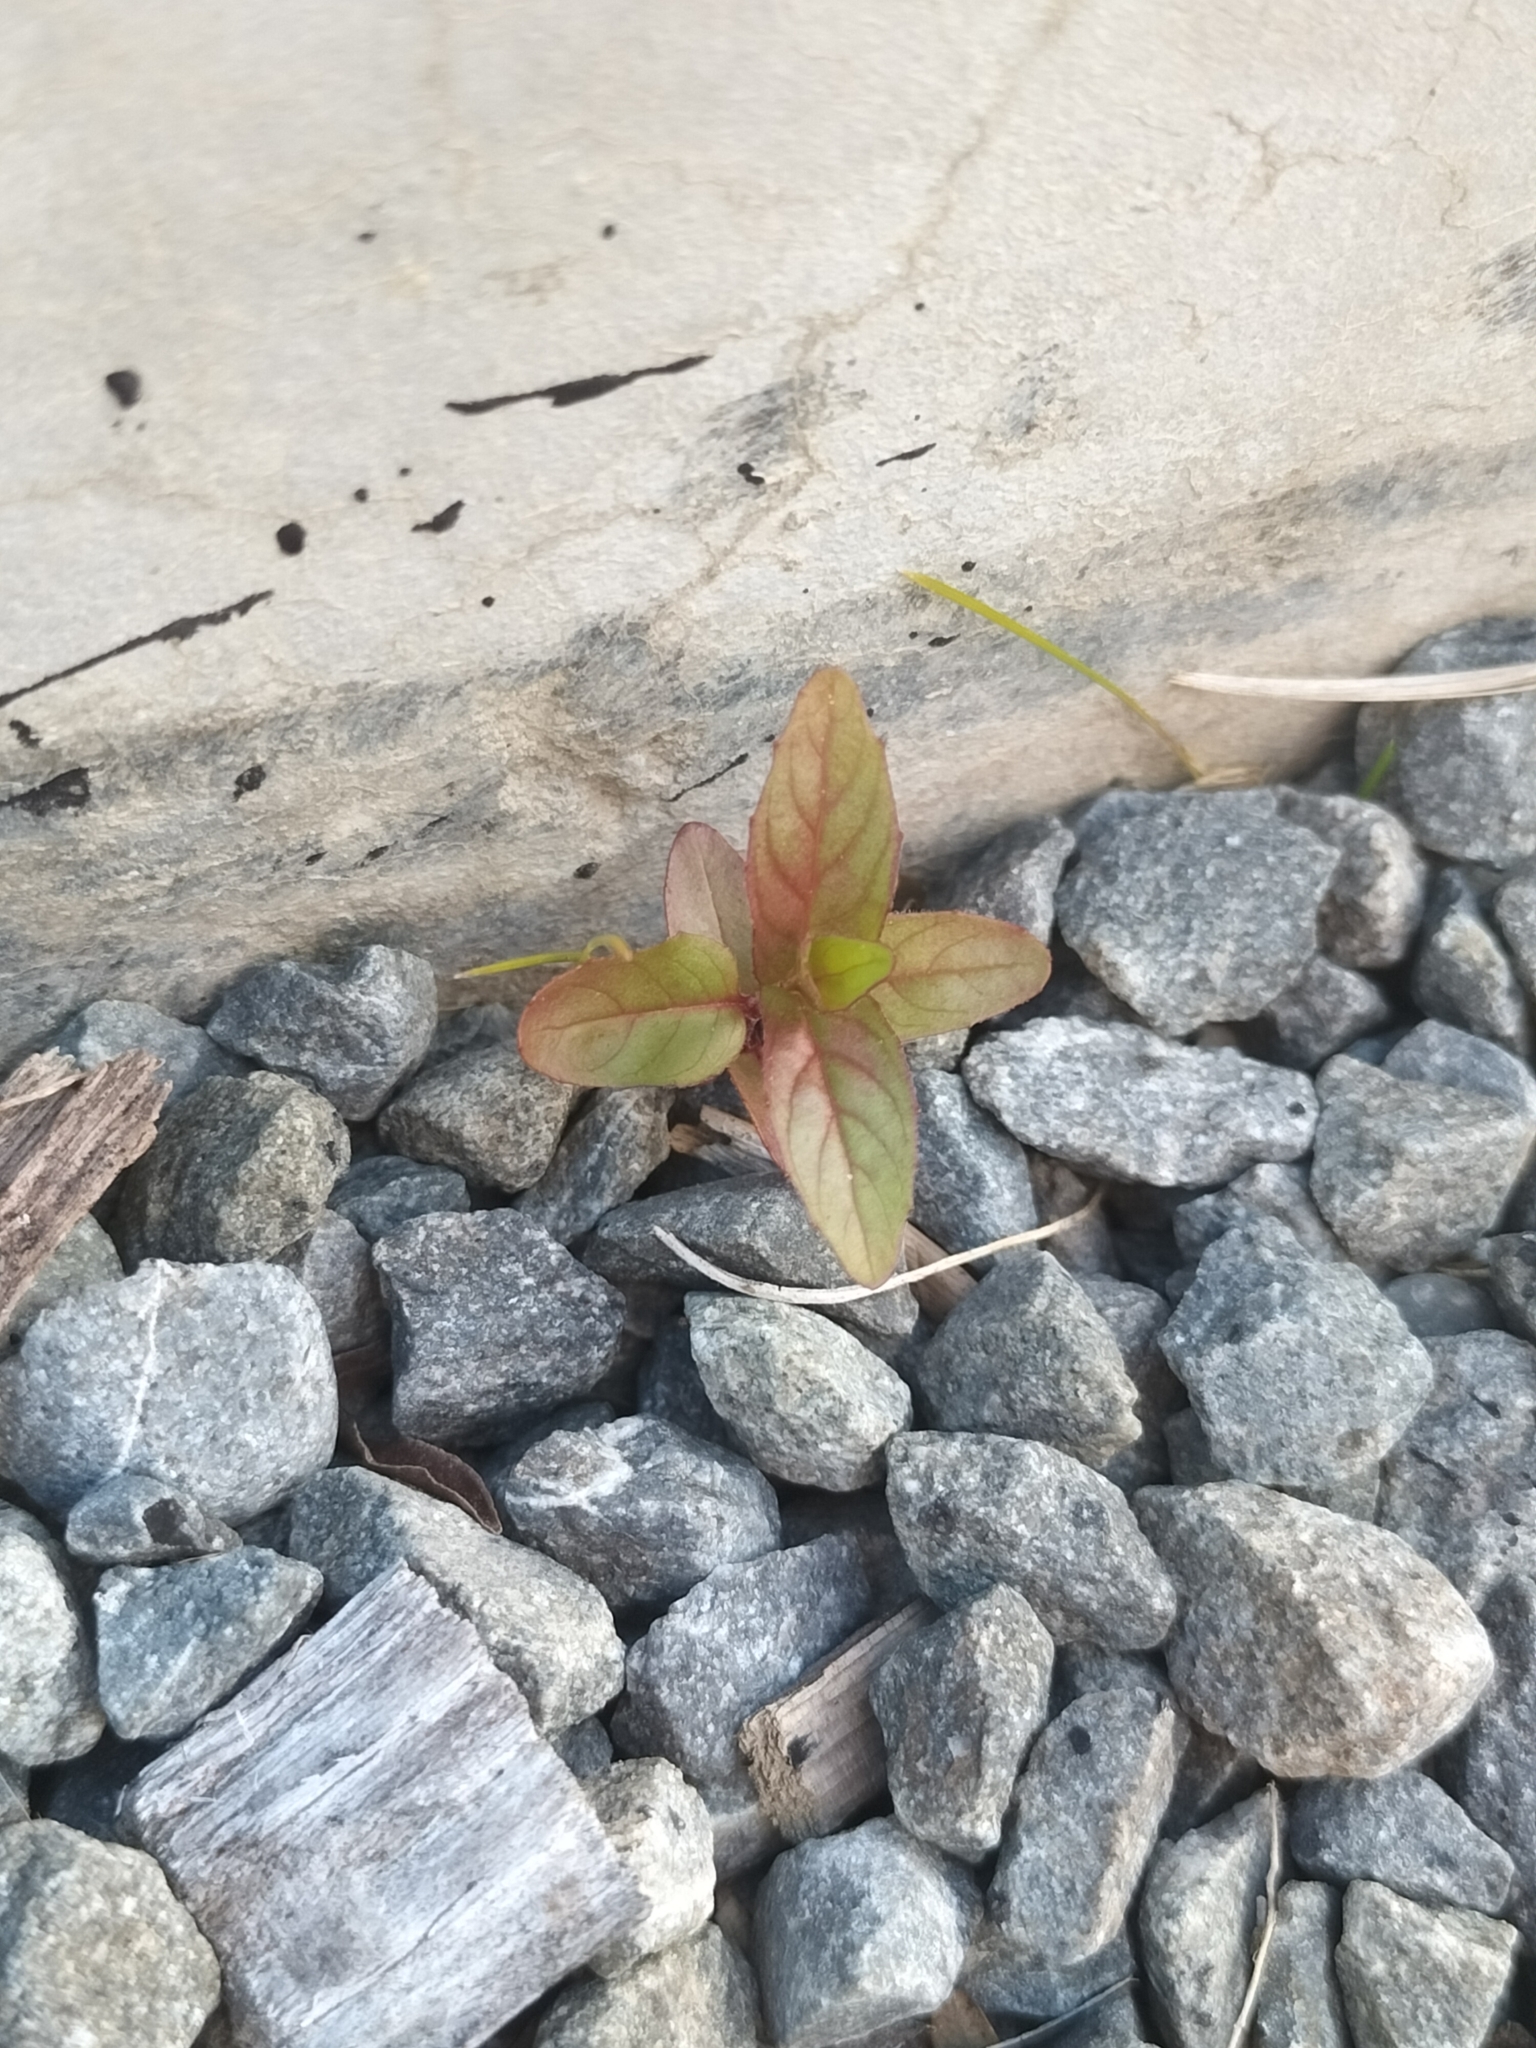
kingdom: Plantae
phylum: Tracheophyta
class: Magnoliopsida
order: Myrtales
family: Onagraceae
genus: Epilobium
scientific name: Epilobium ciliatum
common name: American willowherb
